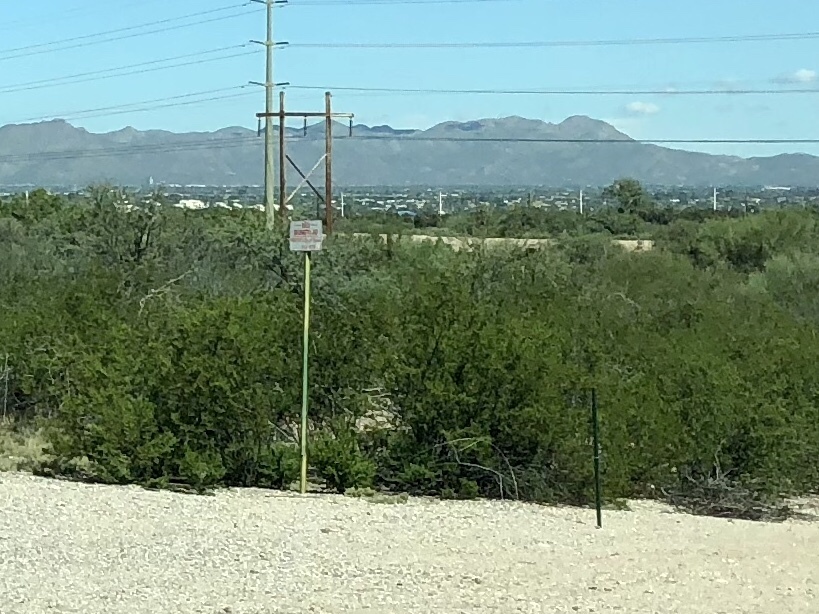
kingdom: Plantae
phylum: Tracheophyta
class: Magnoliopsida
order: Zygophyllales
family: Zygophyllaceae
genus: Larrea
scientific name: Larrea tridentata
